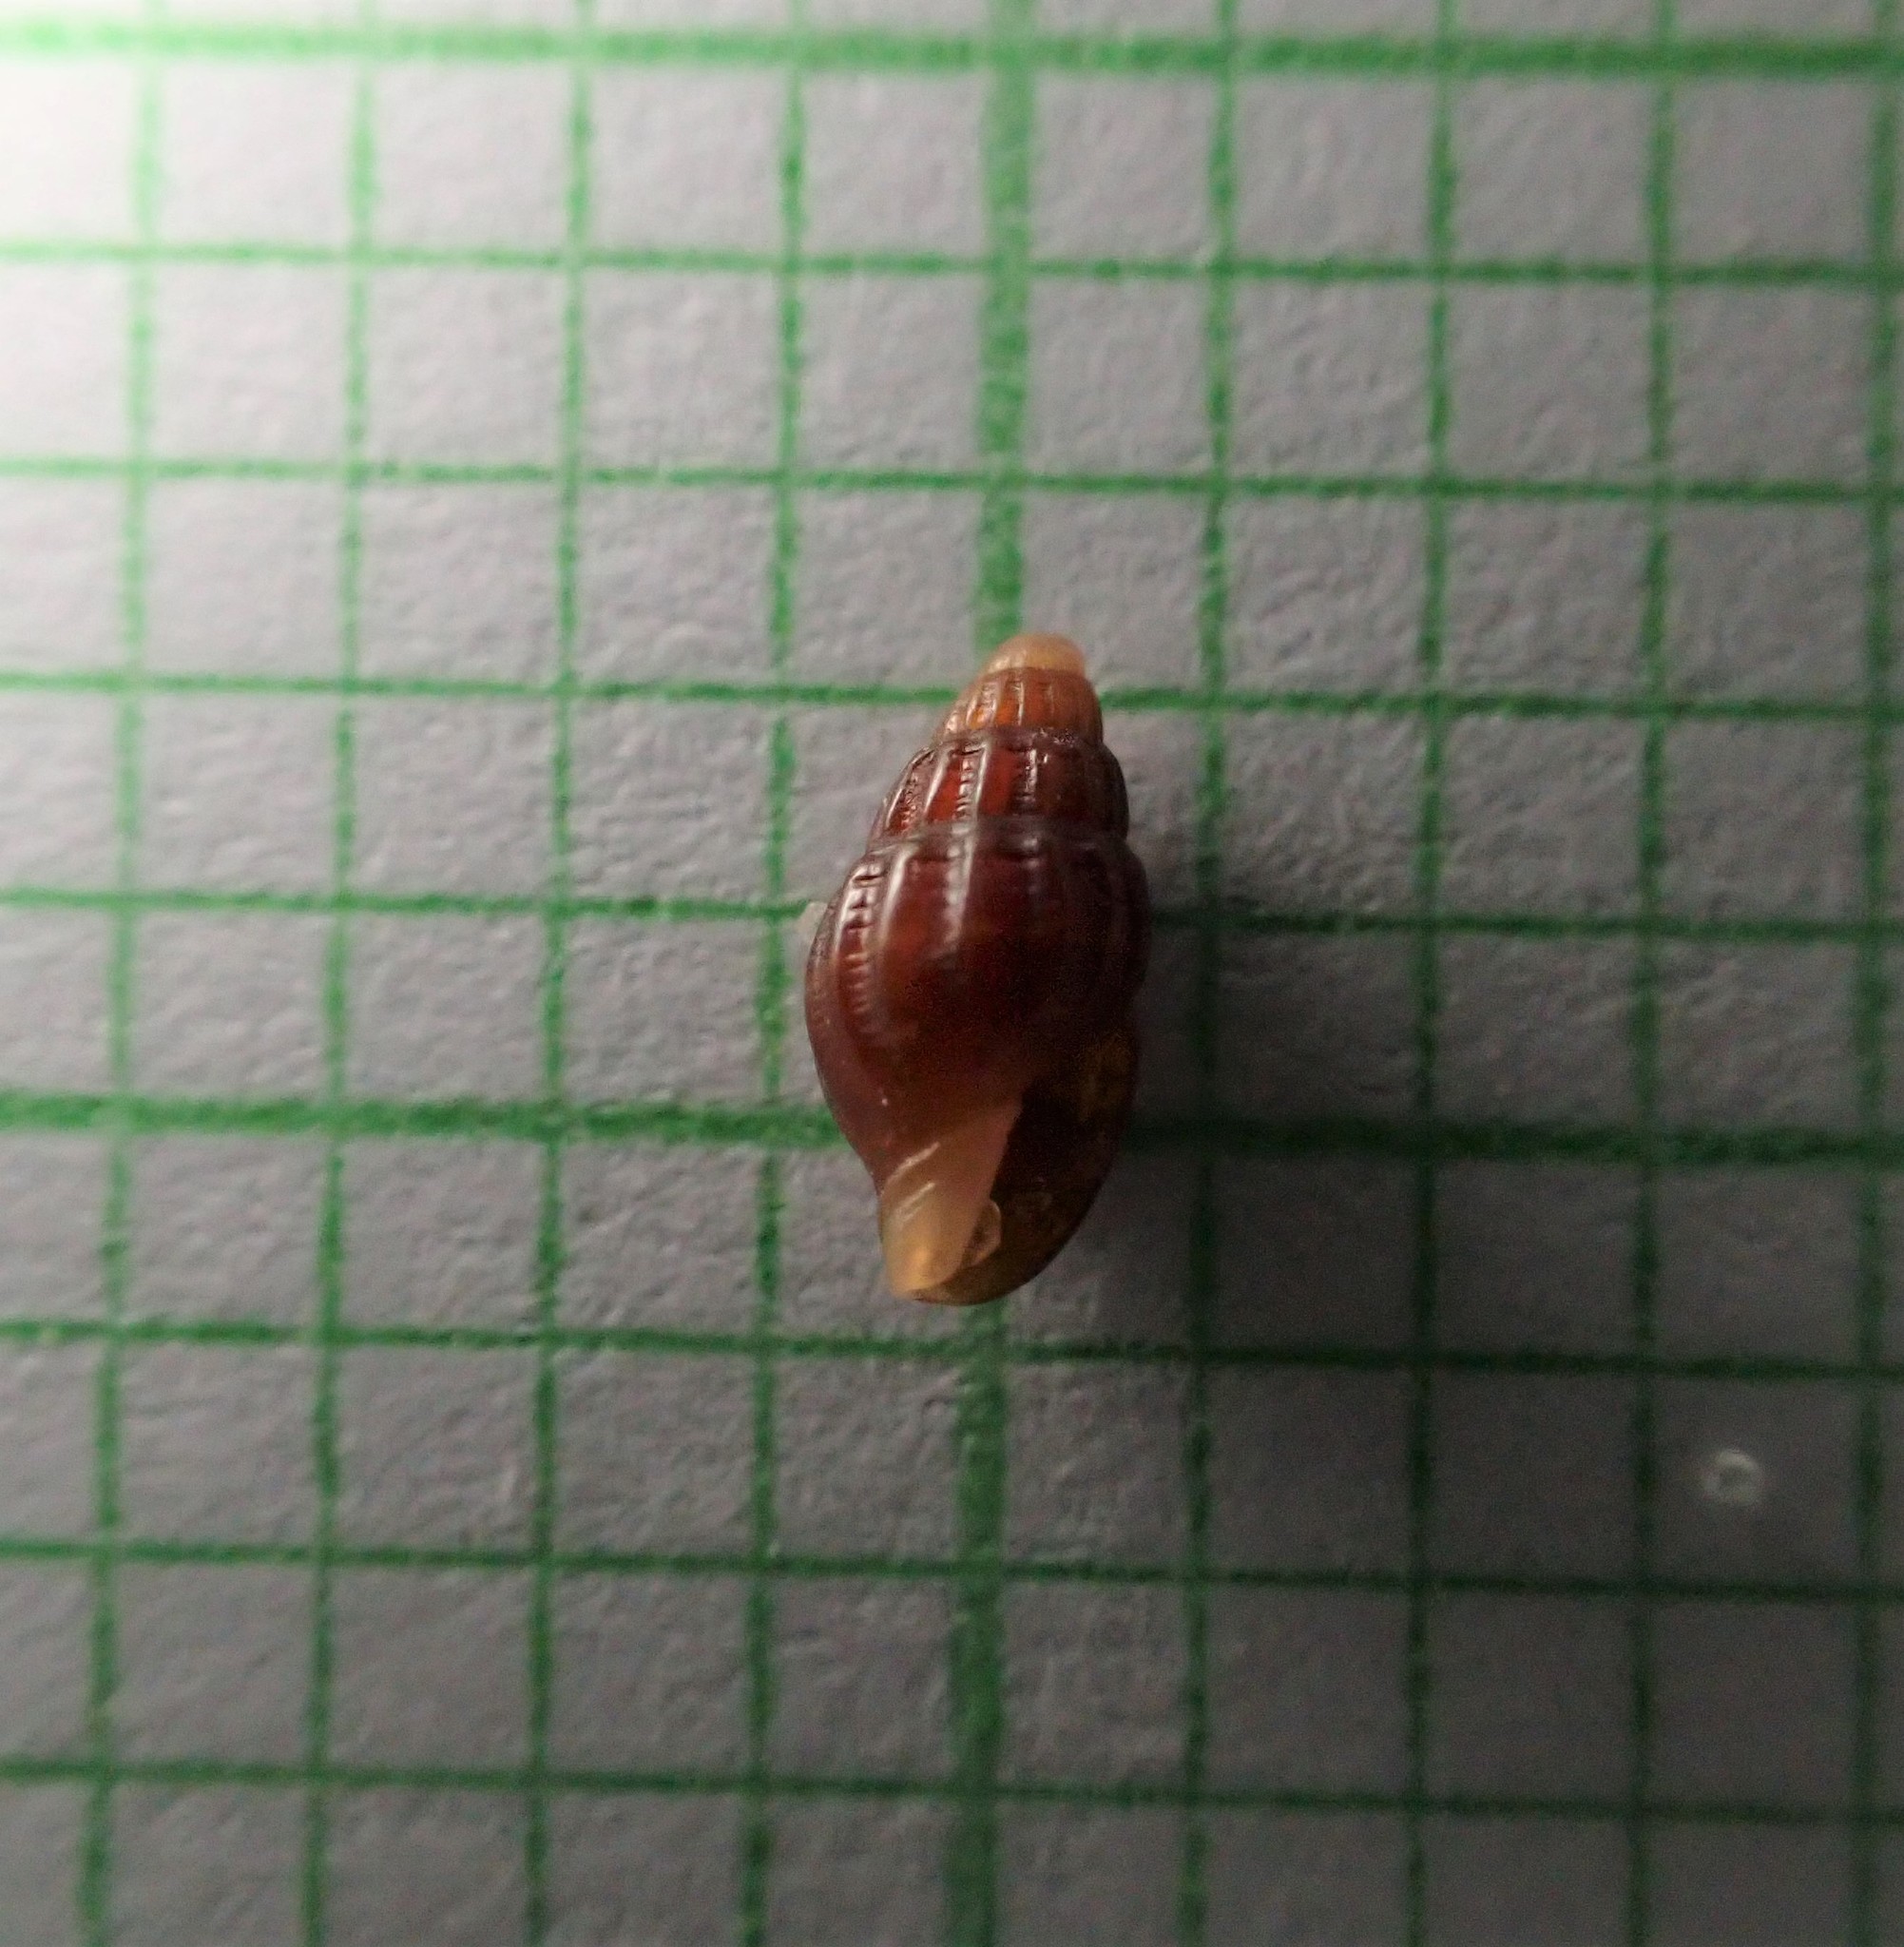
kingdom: Animalia
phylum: Mollusca
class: Gastropoda
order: Neogastropoda
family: Costellariidae
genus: Austromitra
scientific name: Austromitra erecta
